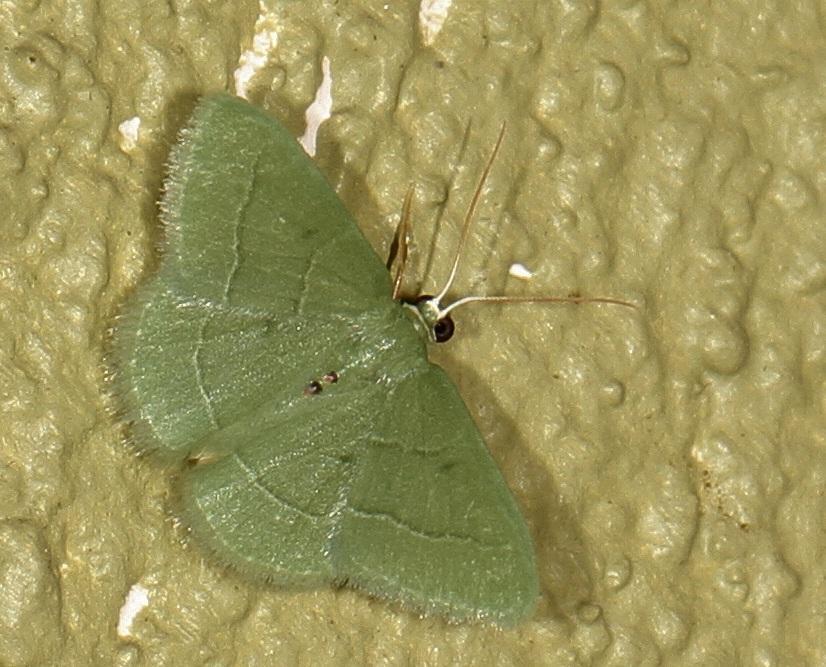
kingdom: Animalia
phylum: Arthropoda
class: Insecta
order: Lepidoptera
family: Geometridae
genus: Chlorissa
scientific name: Chlorissa attenuata
